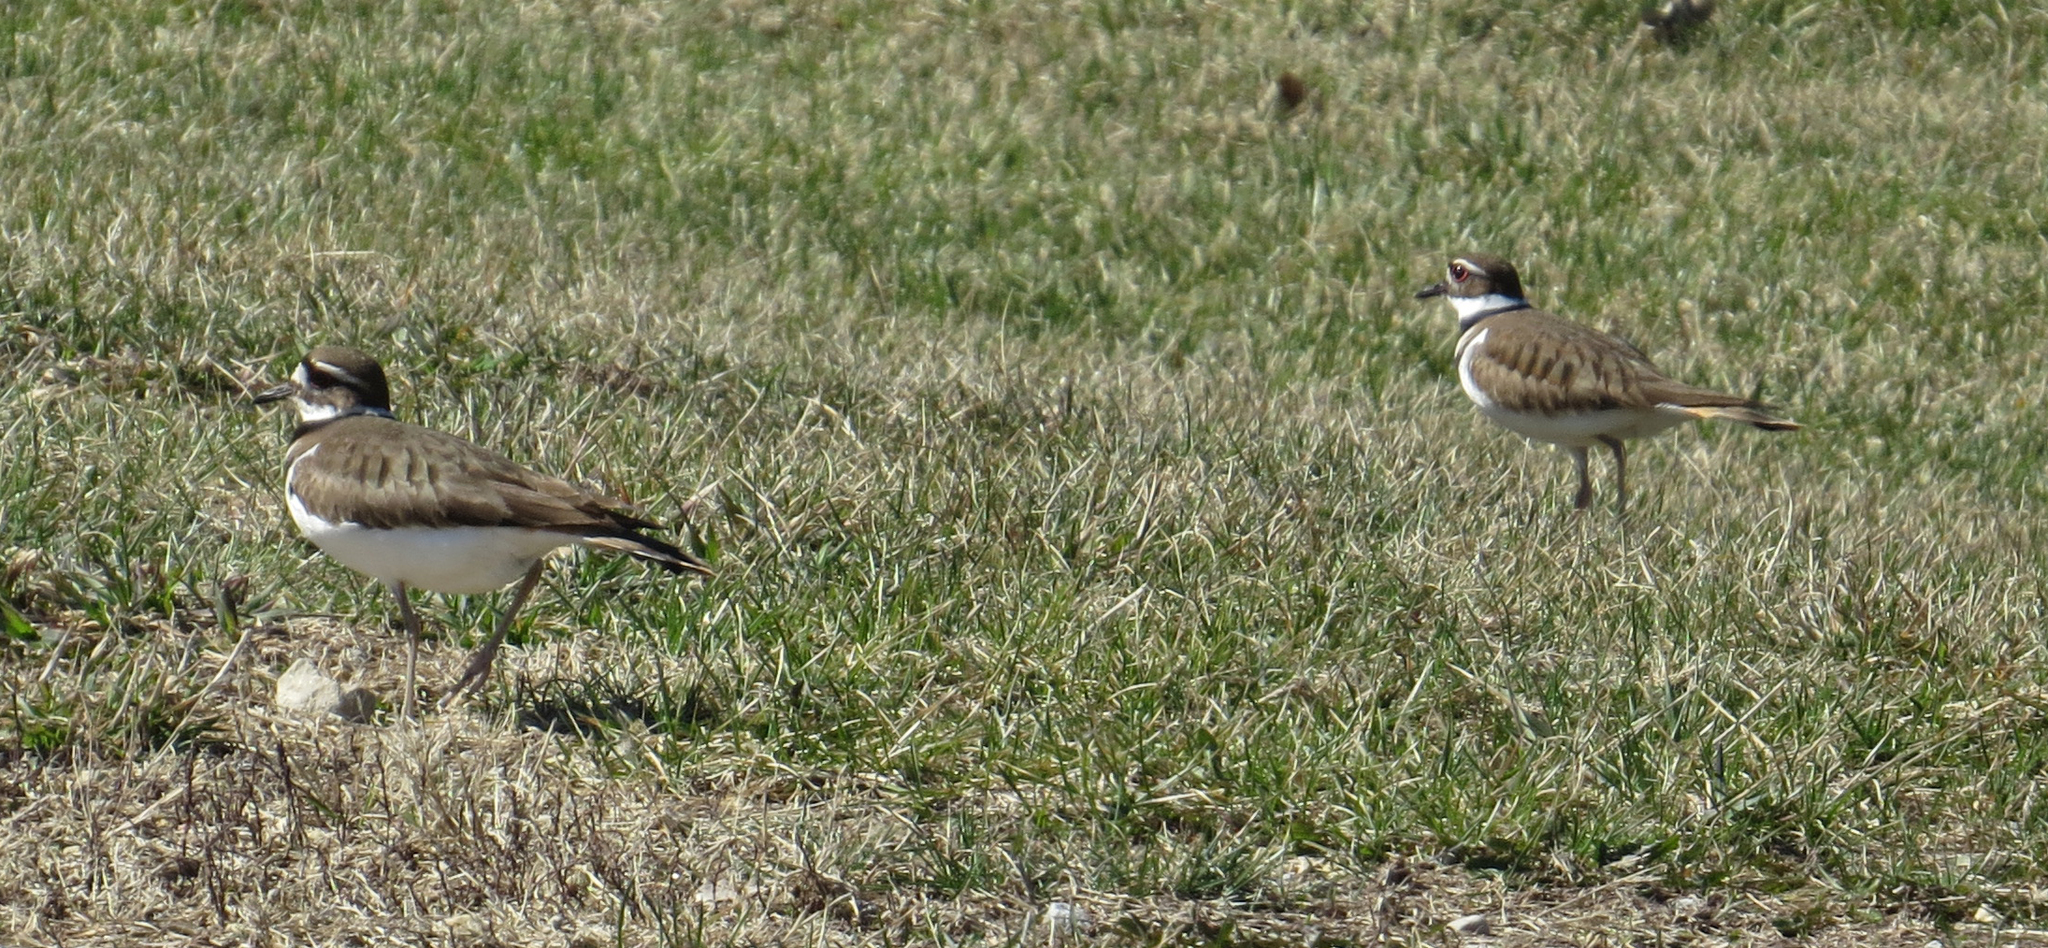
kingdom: Animalia
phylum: Chordata
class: Aves
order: Charadriiformes
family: Charadriidae
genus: Charadrius
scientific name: Charadrius vociferus
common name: Killdeer
